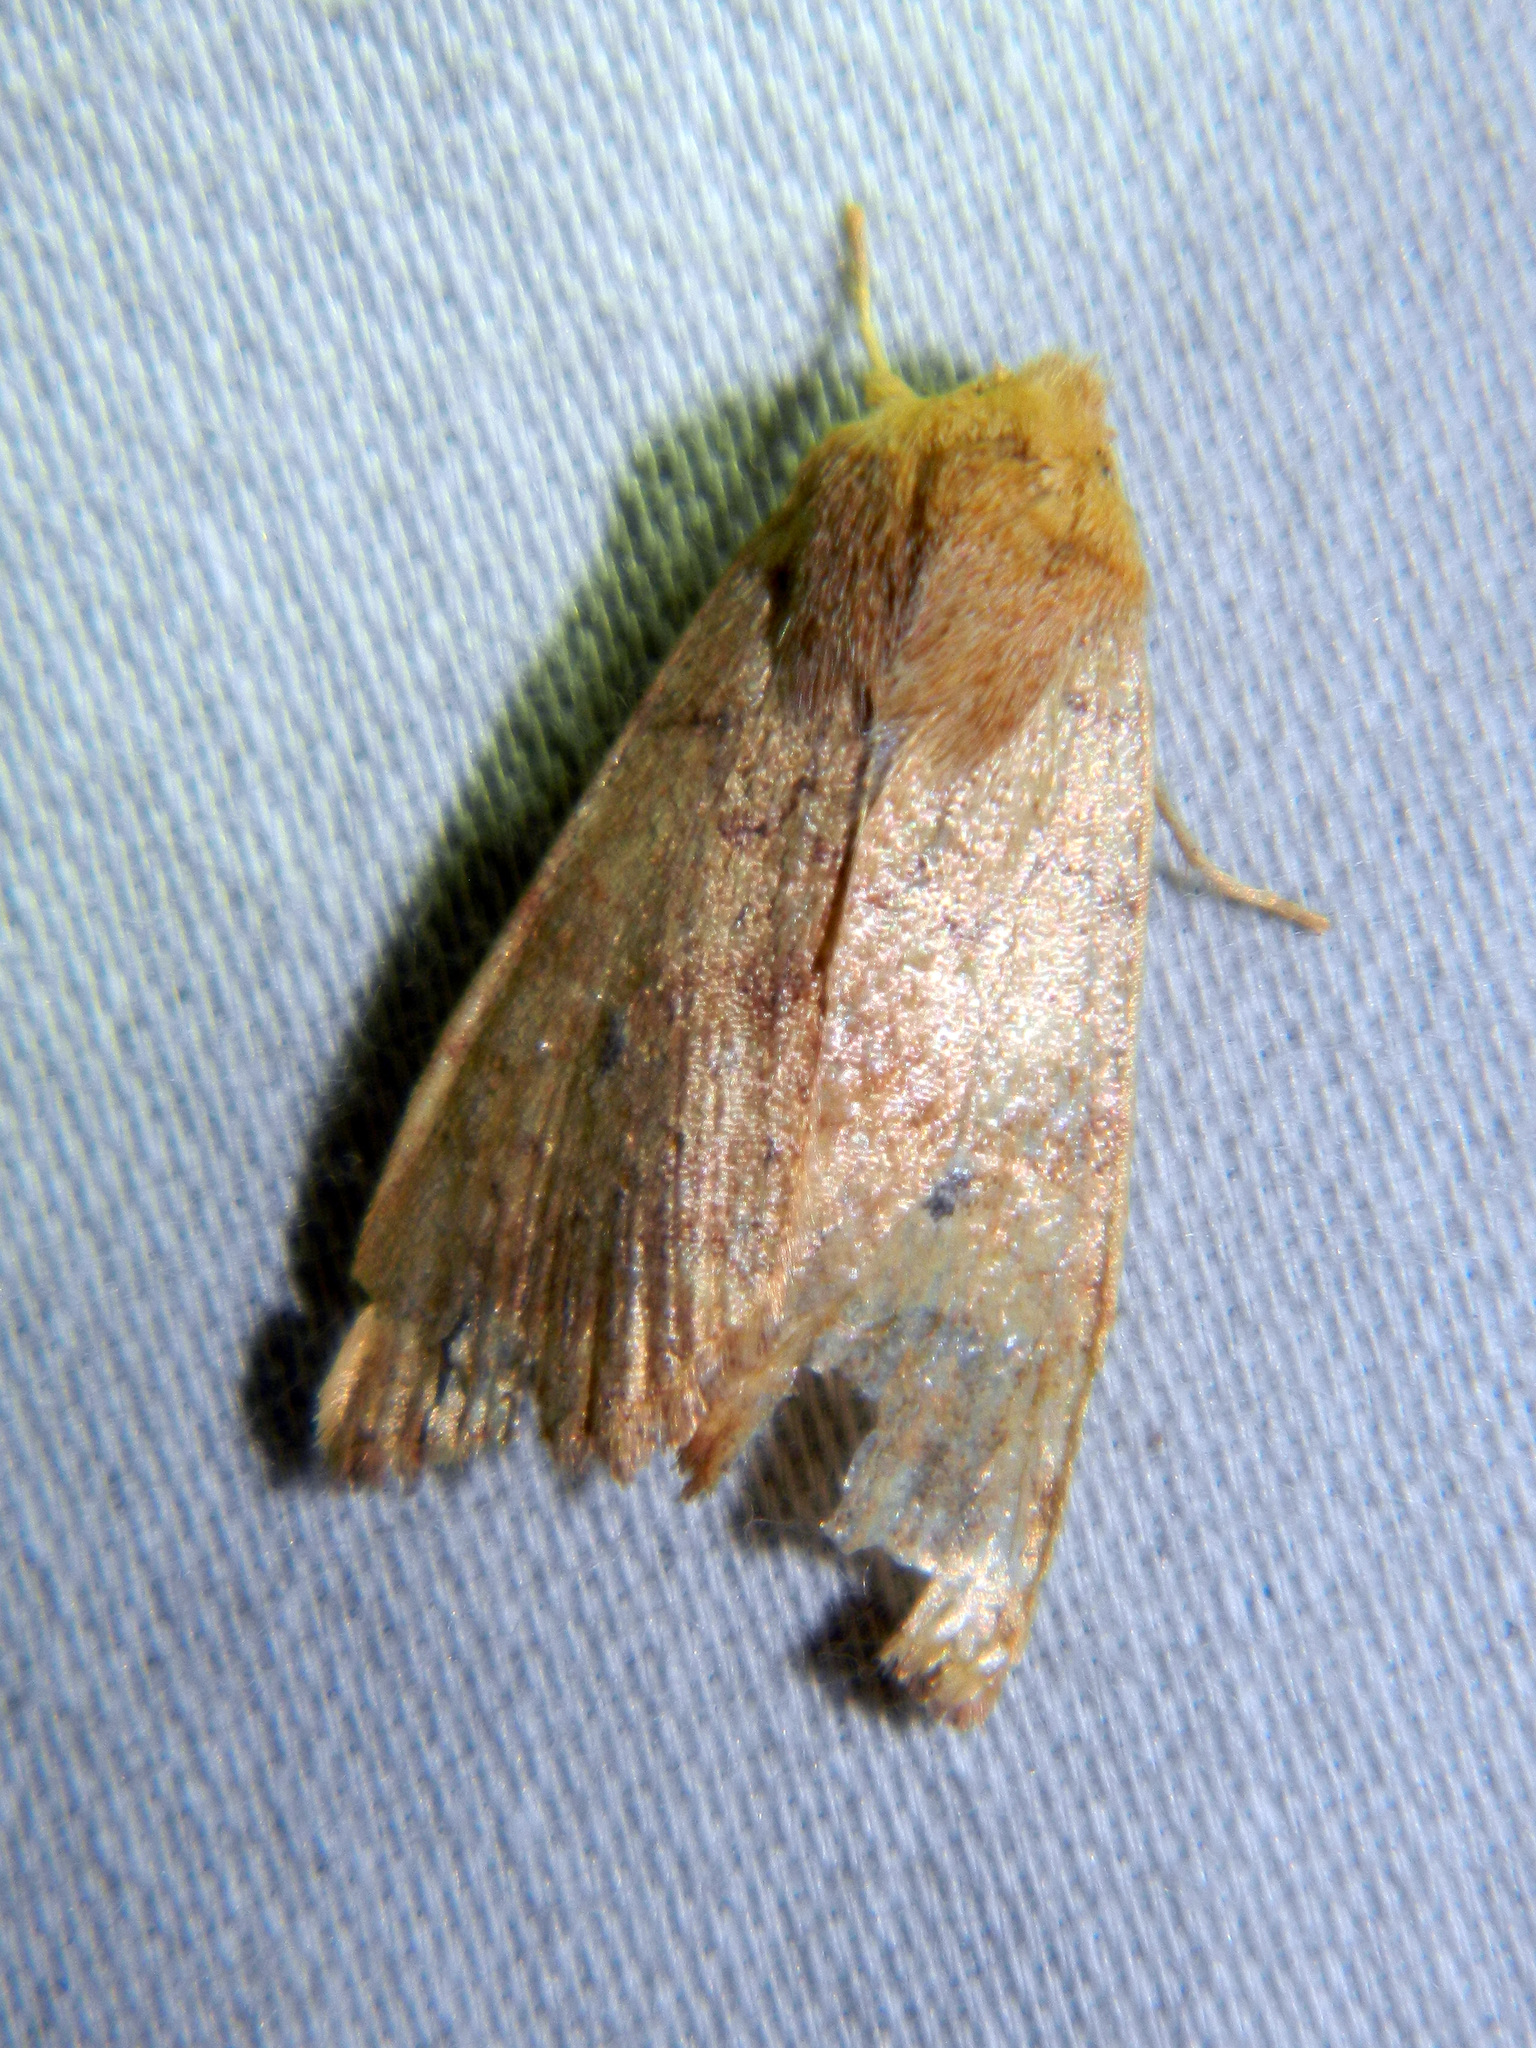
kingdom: Animalia
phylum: Arthropoda
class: Insecta
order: Lepidoptera
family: Noctuidae
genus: Agrochola
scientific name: Agrochola bicolorago
